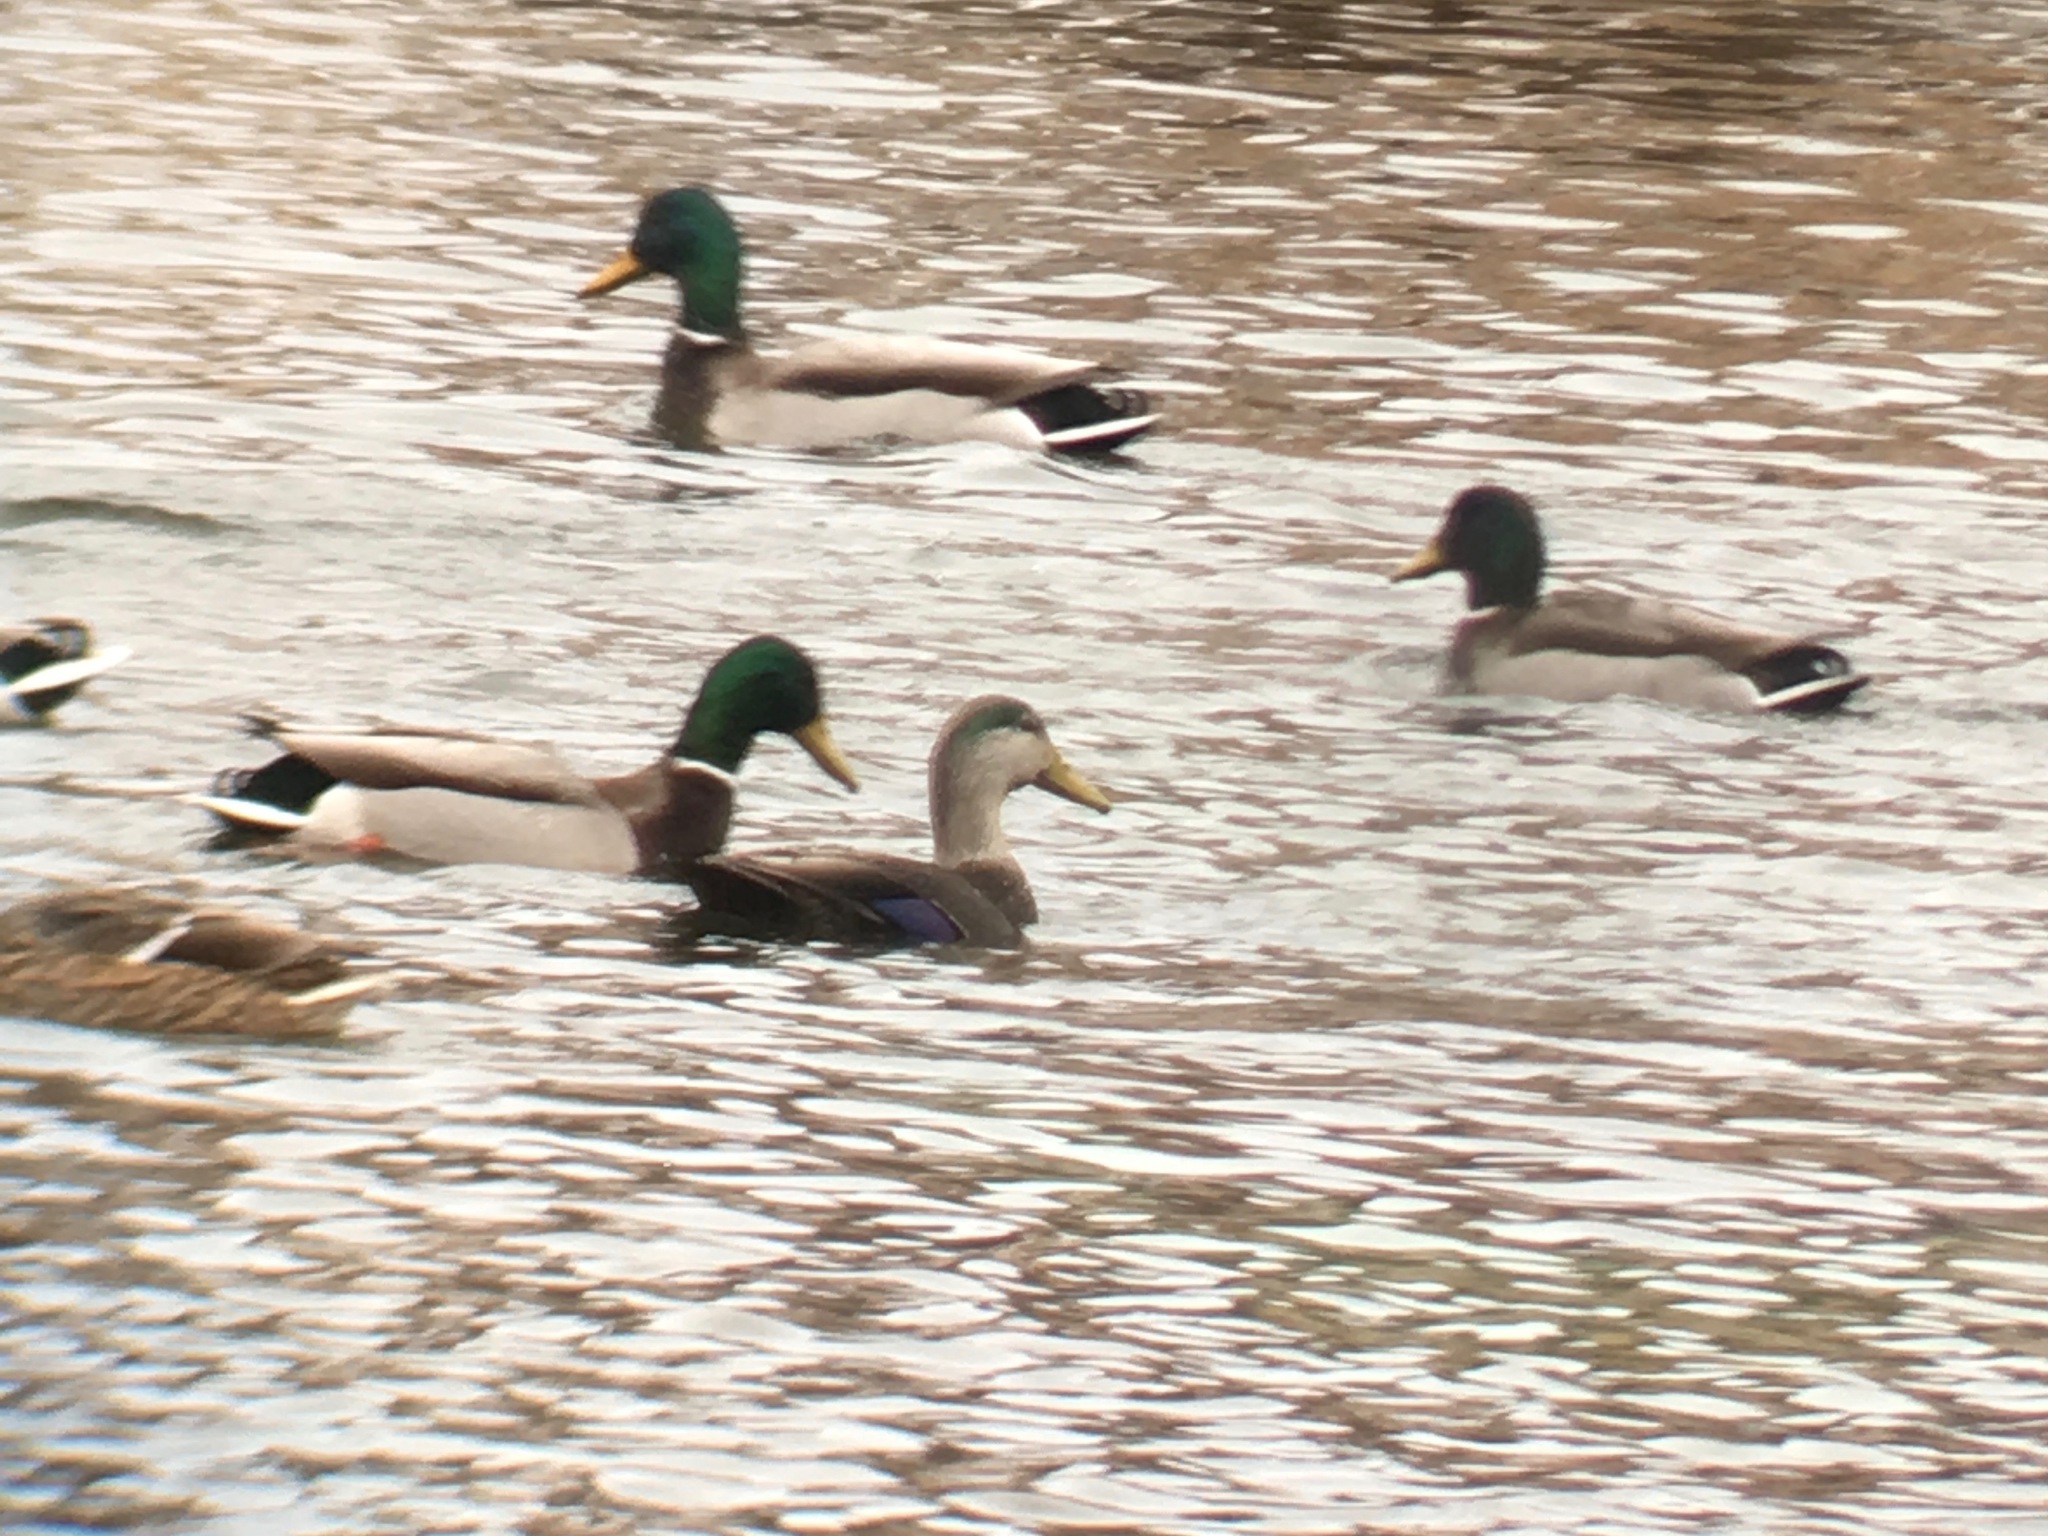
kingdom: Animalia
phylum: Chordata
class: Aves
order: Anseriformes
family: Anatidae
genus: Anas
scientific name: Anas
